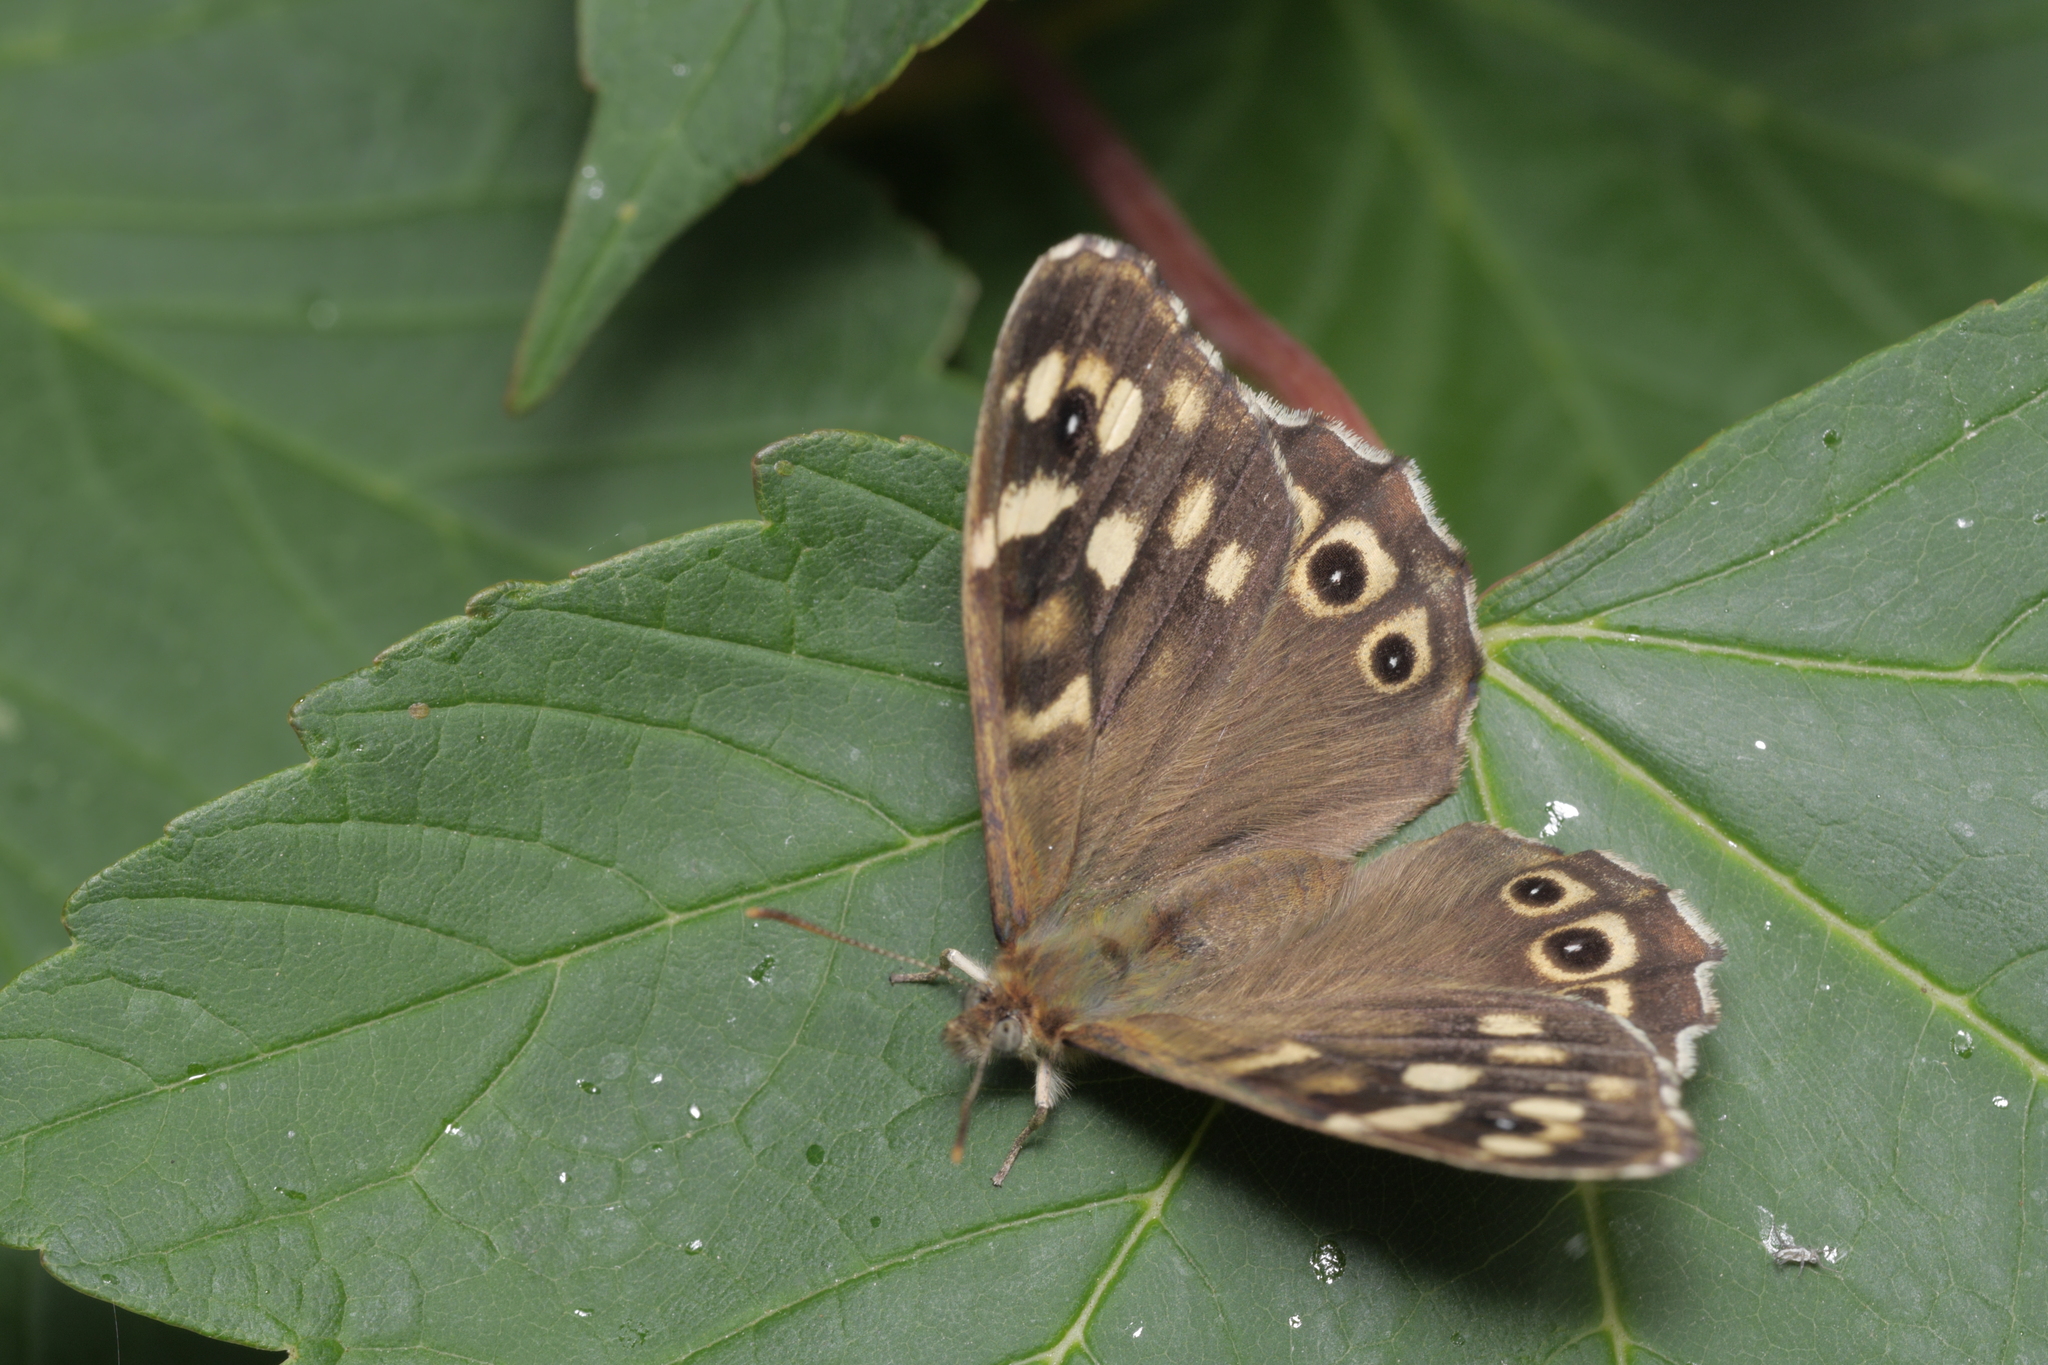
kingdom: Animalia
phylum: Arthropoda
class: Insecta
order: Lepidoptera
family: Nymphalidae
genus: Pararge
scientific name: Pararge aegeria
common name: Speckled wood
